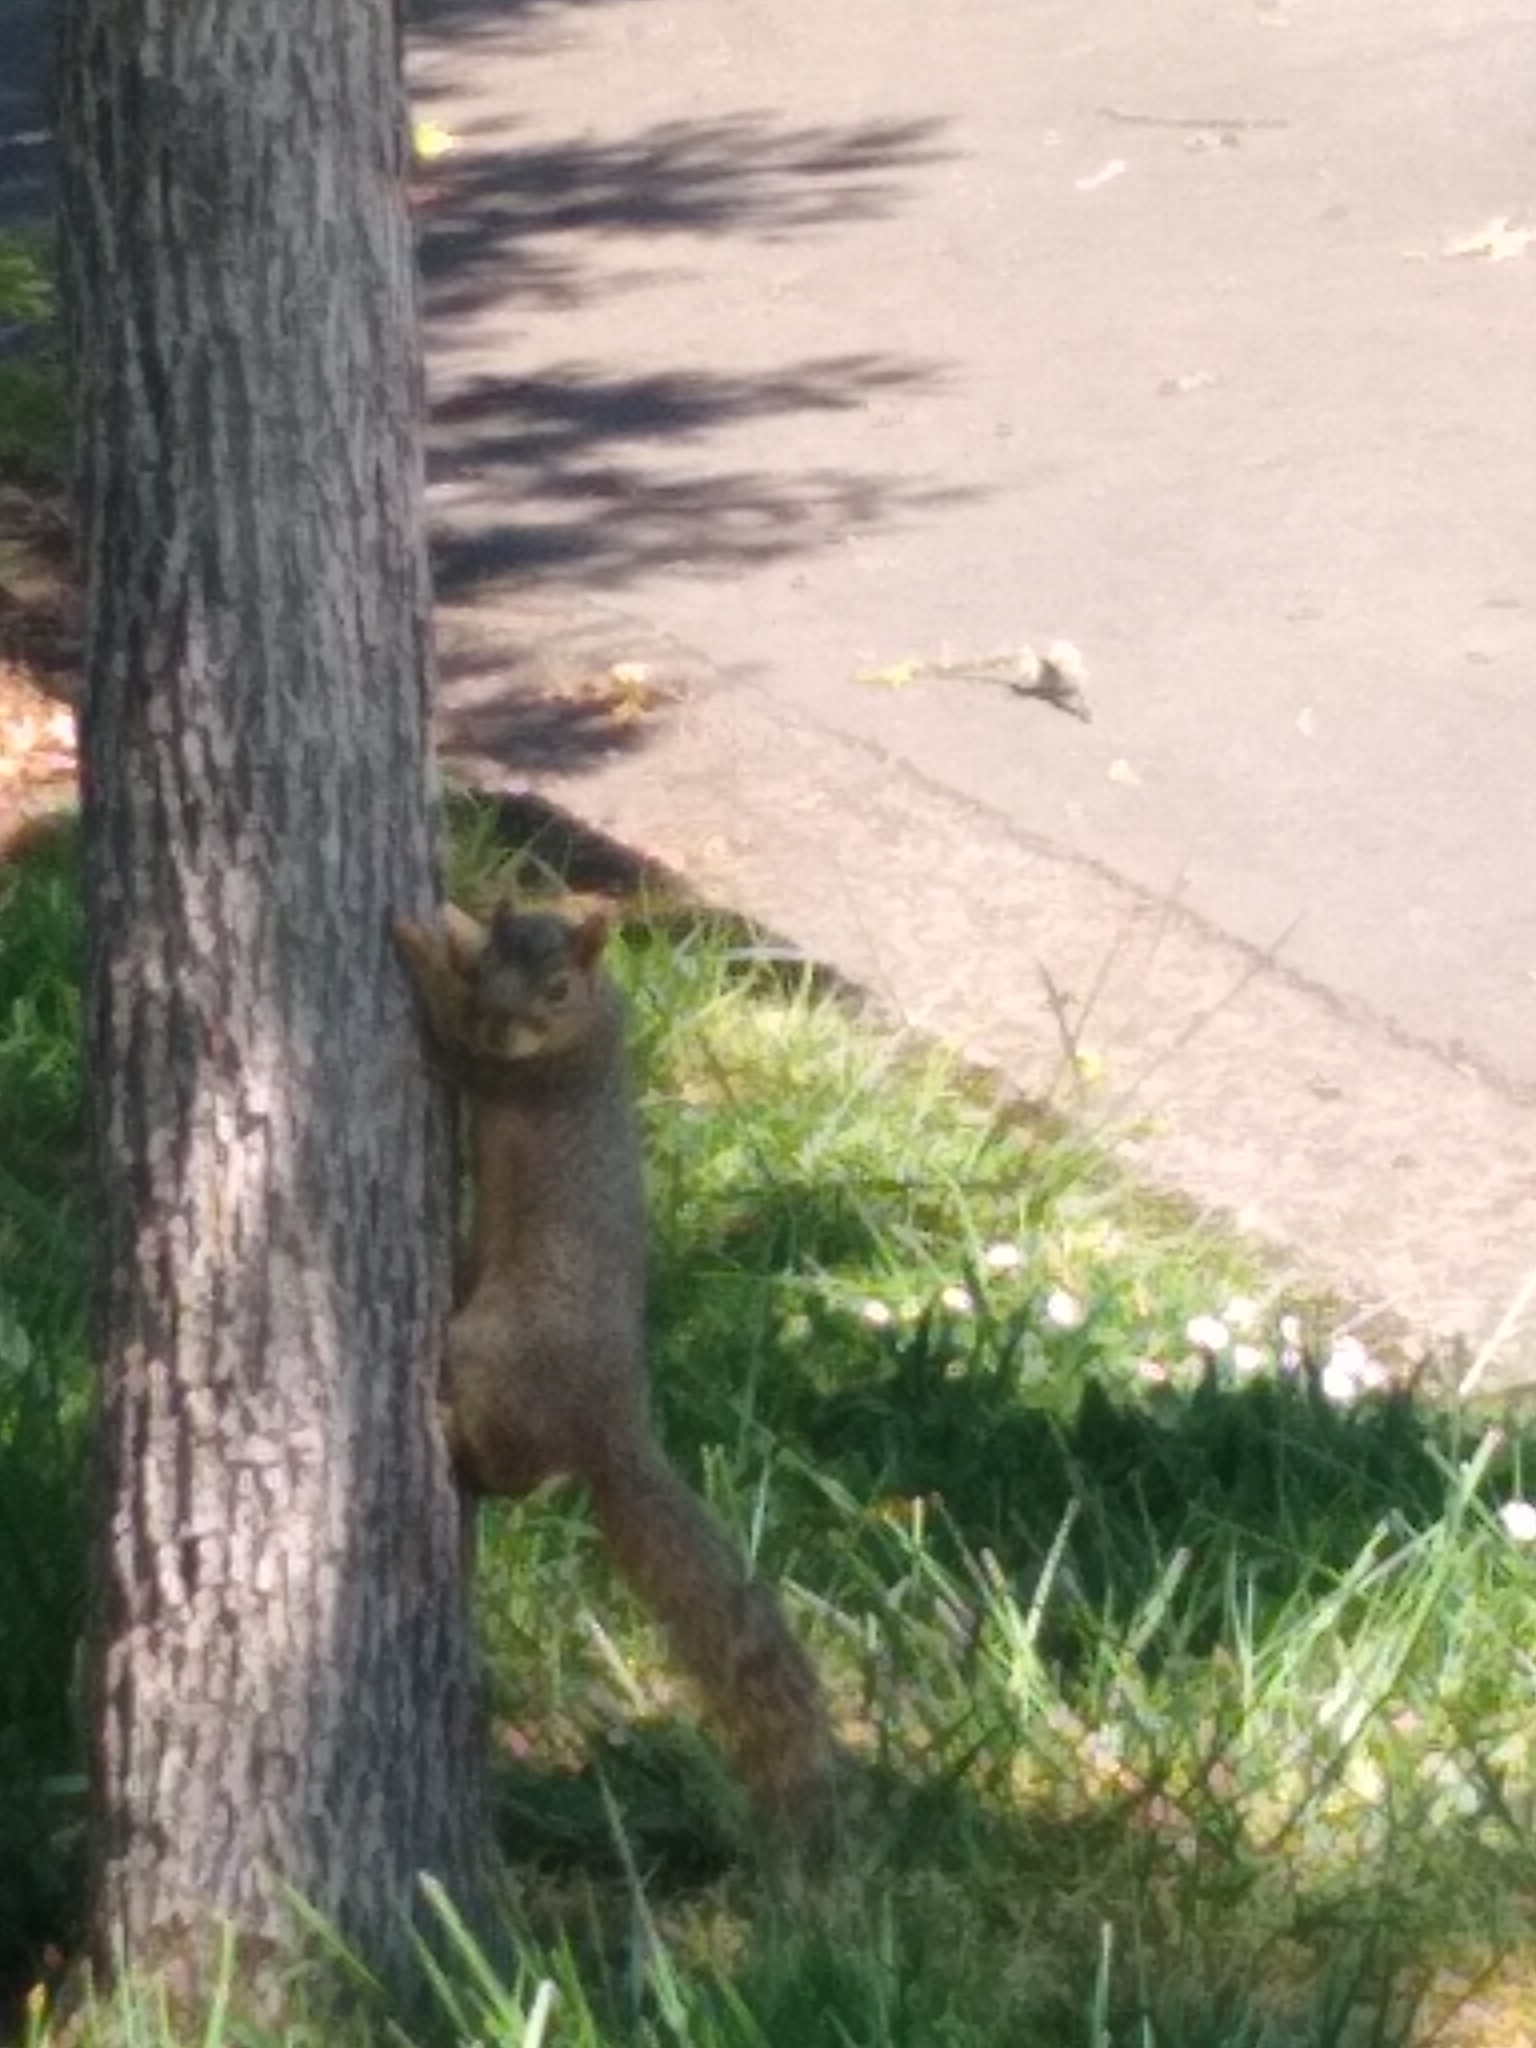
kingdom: Animalia
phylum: Chordata
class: Mammalia
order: Rodentia
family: Sciuridae
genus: Sciurus
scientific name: Sciurus niger
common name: Fox squirrel
